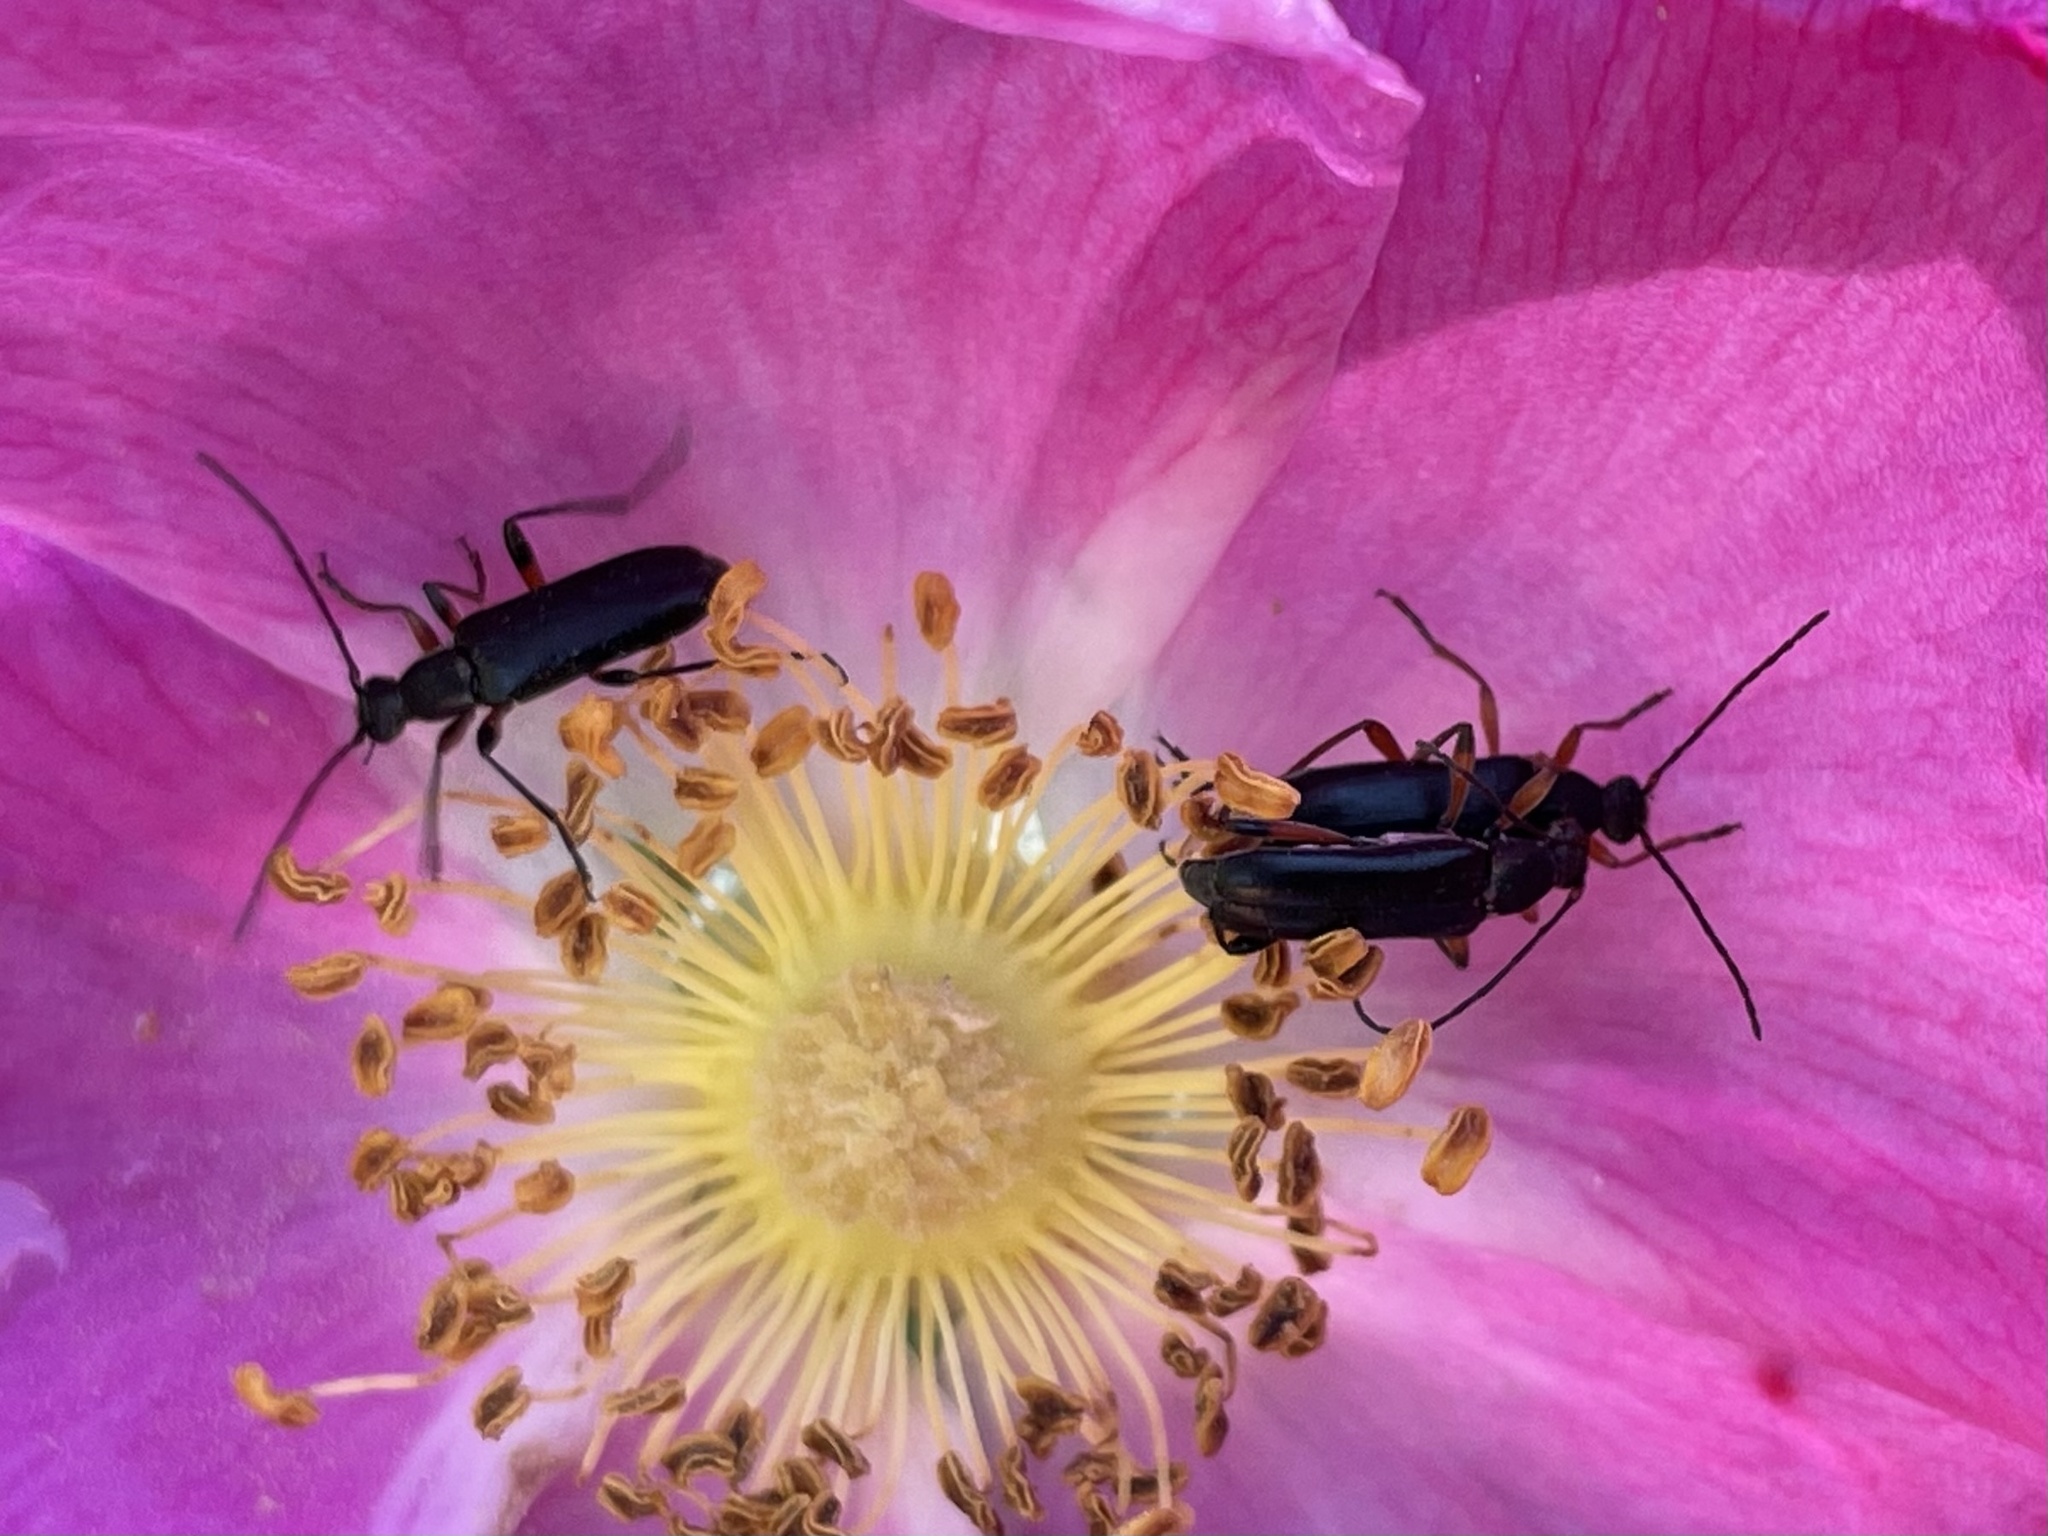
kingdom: Animalia
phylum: Arthropoda
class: Insecta
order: Coleoptera
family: Cerambycidae
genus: Grammoptera
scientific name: Grammoptera subargentata
